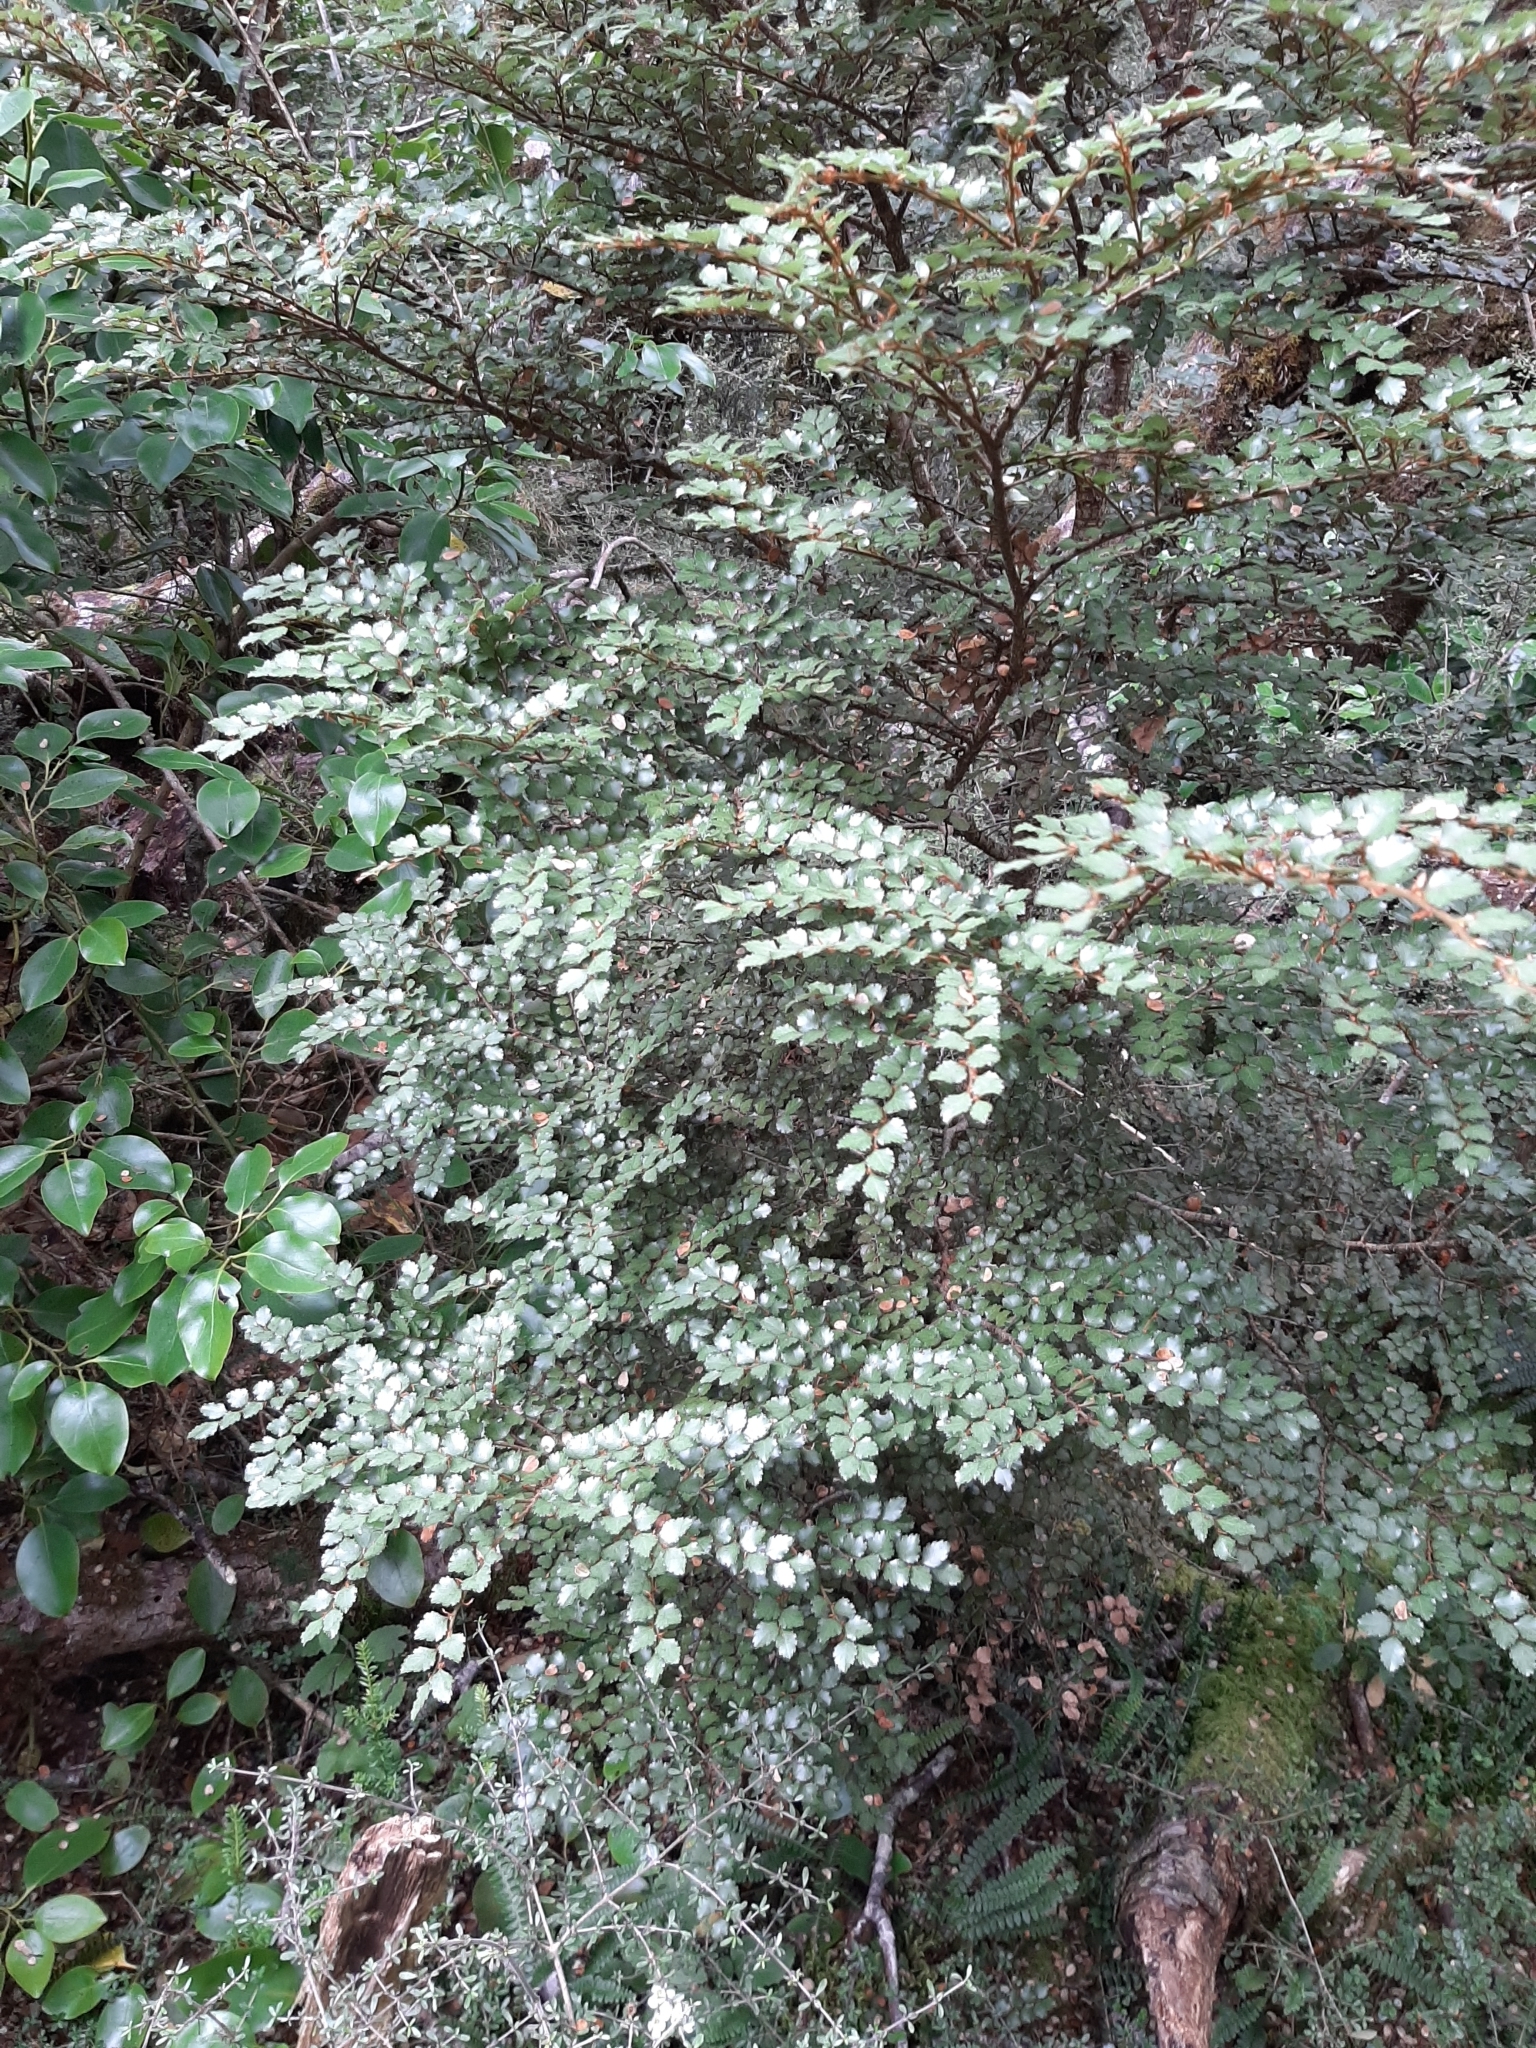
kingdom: Plantae
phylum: Tracheophyta
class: Magnoliopsida
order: Fagales
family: Nothofagaceae
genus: Nothofagus
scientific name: Nothofagus menziesii
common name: Silver beech
